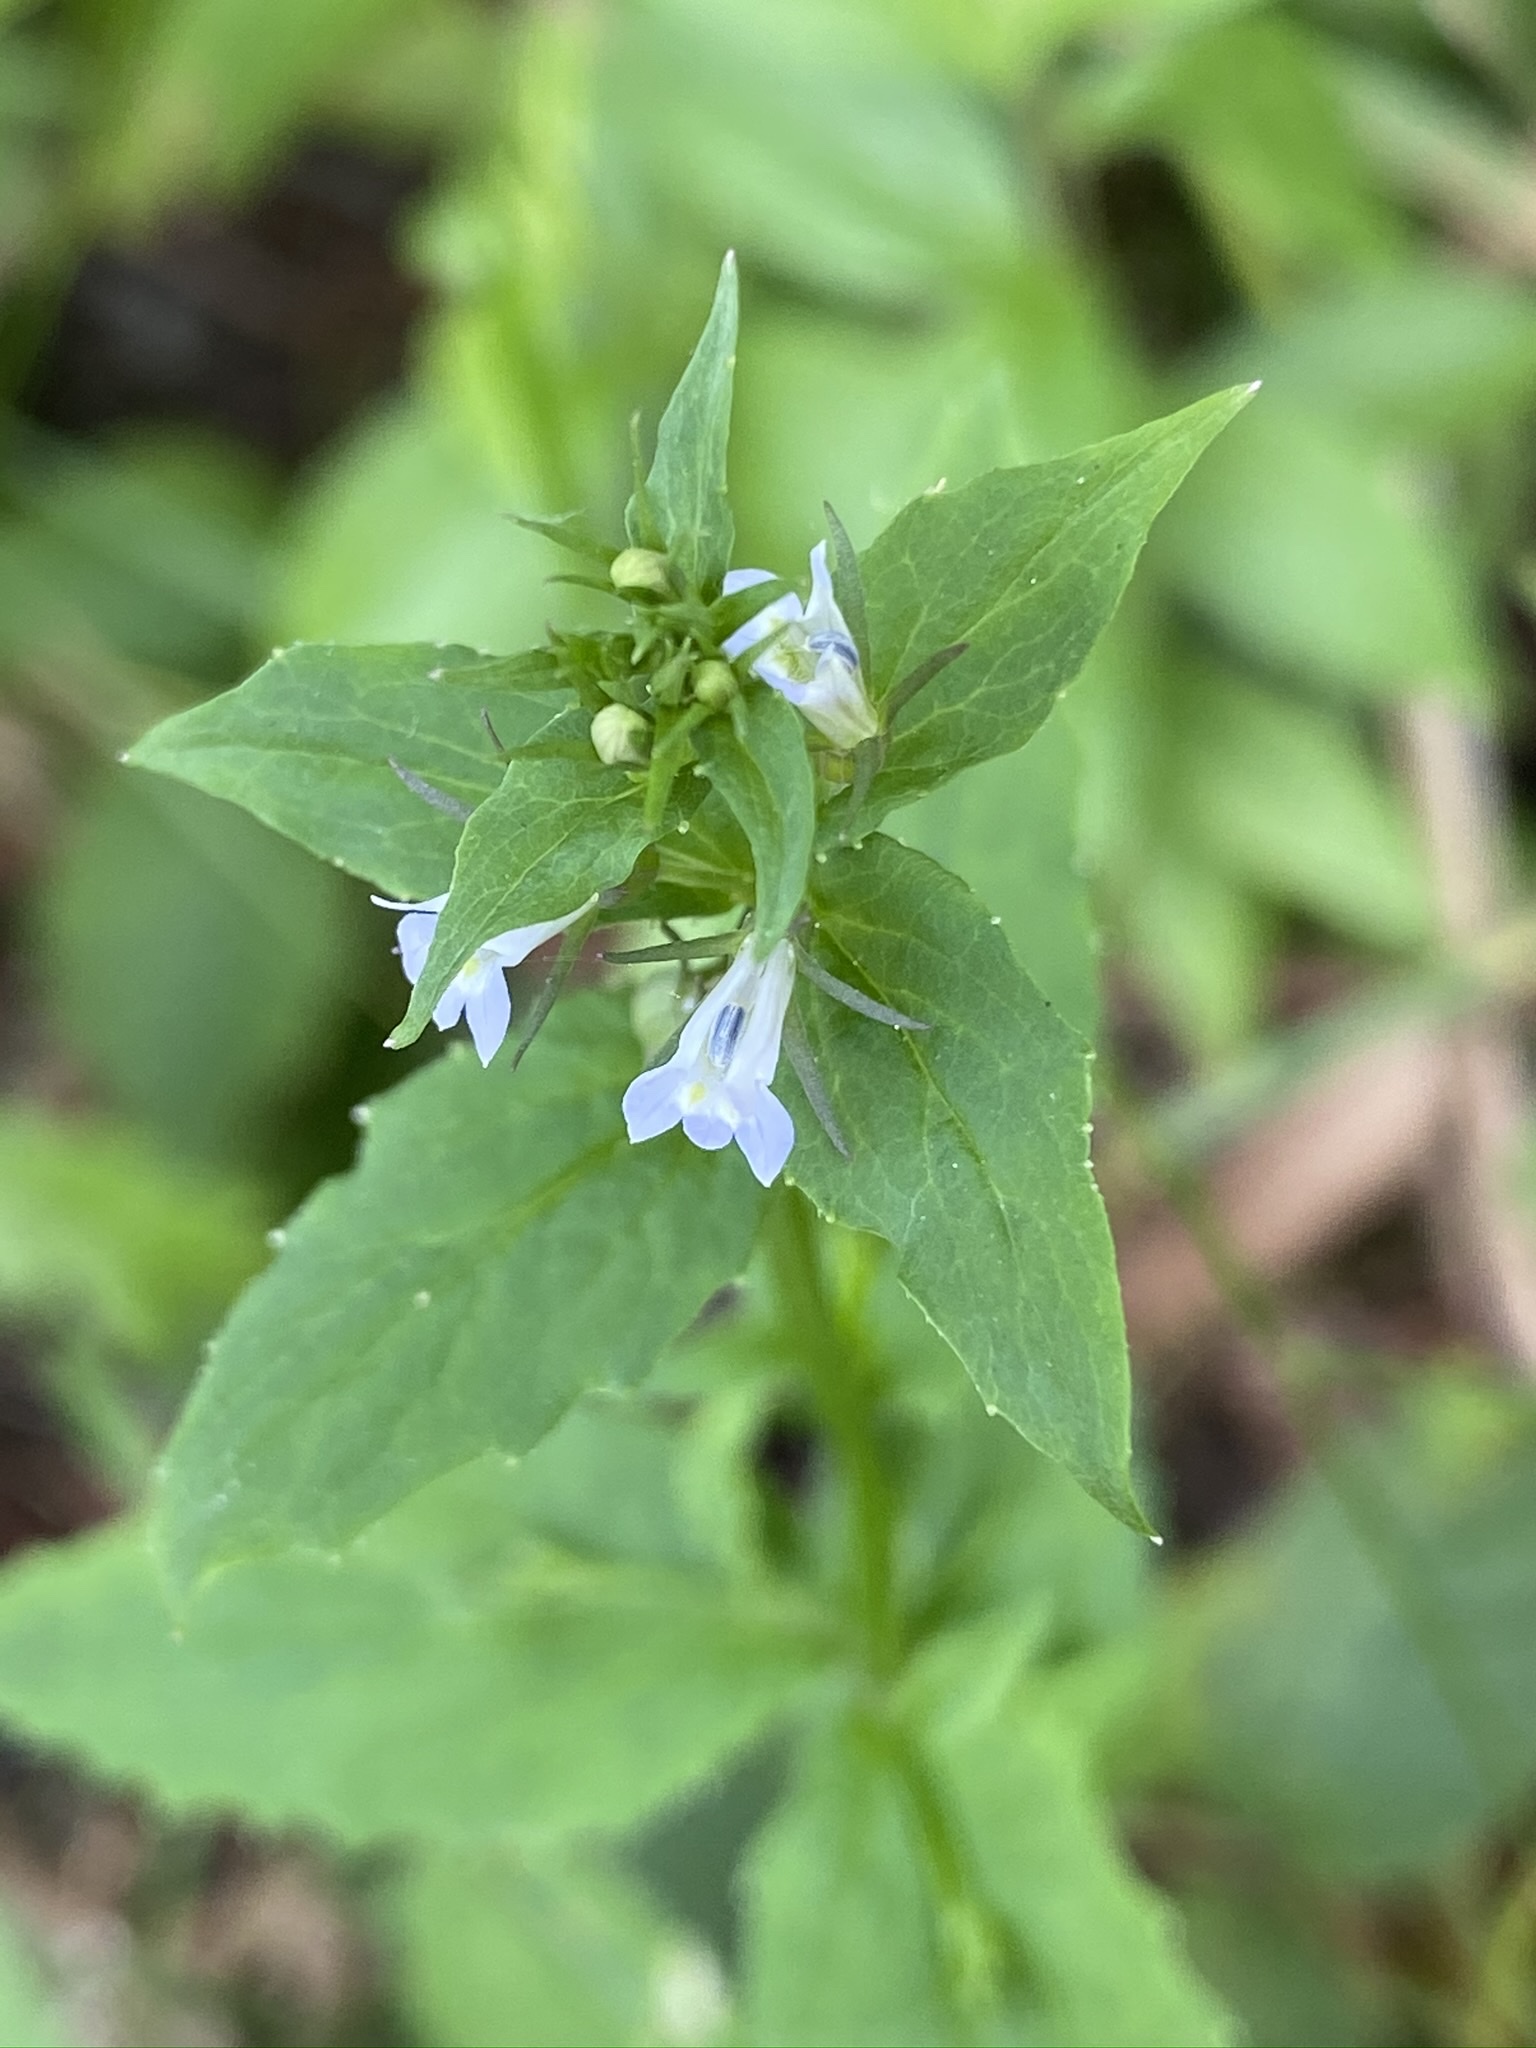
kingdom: Plantae
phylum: Tracheophyta
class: Magnoliopsida
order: Asterales
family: Campanulaceae
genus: Lobelia
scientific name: Lobelia inflata
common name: Indian tobacco
